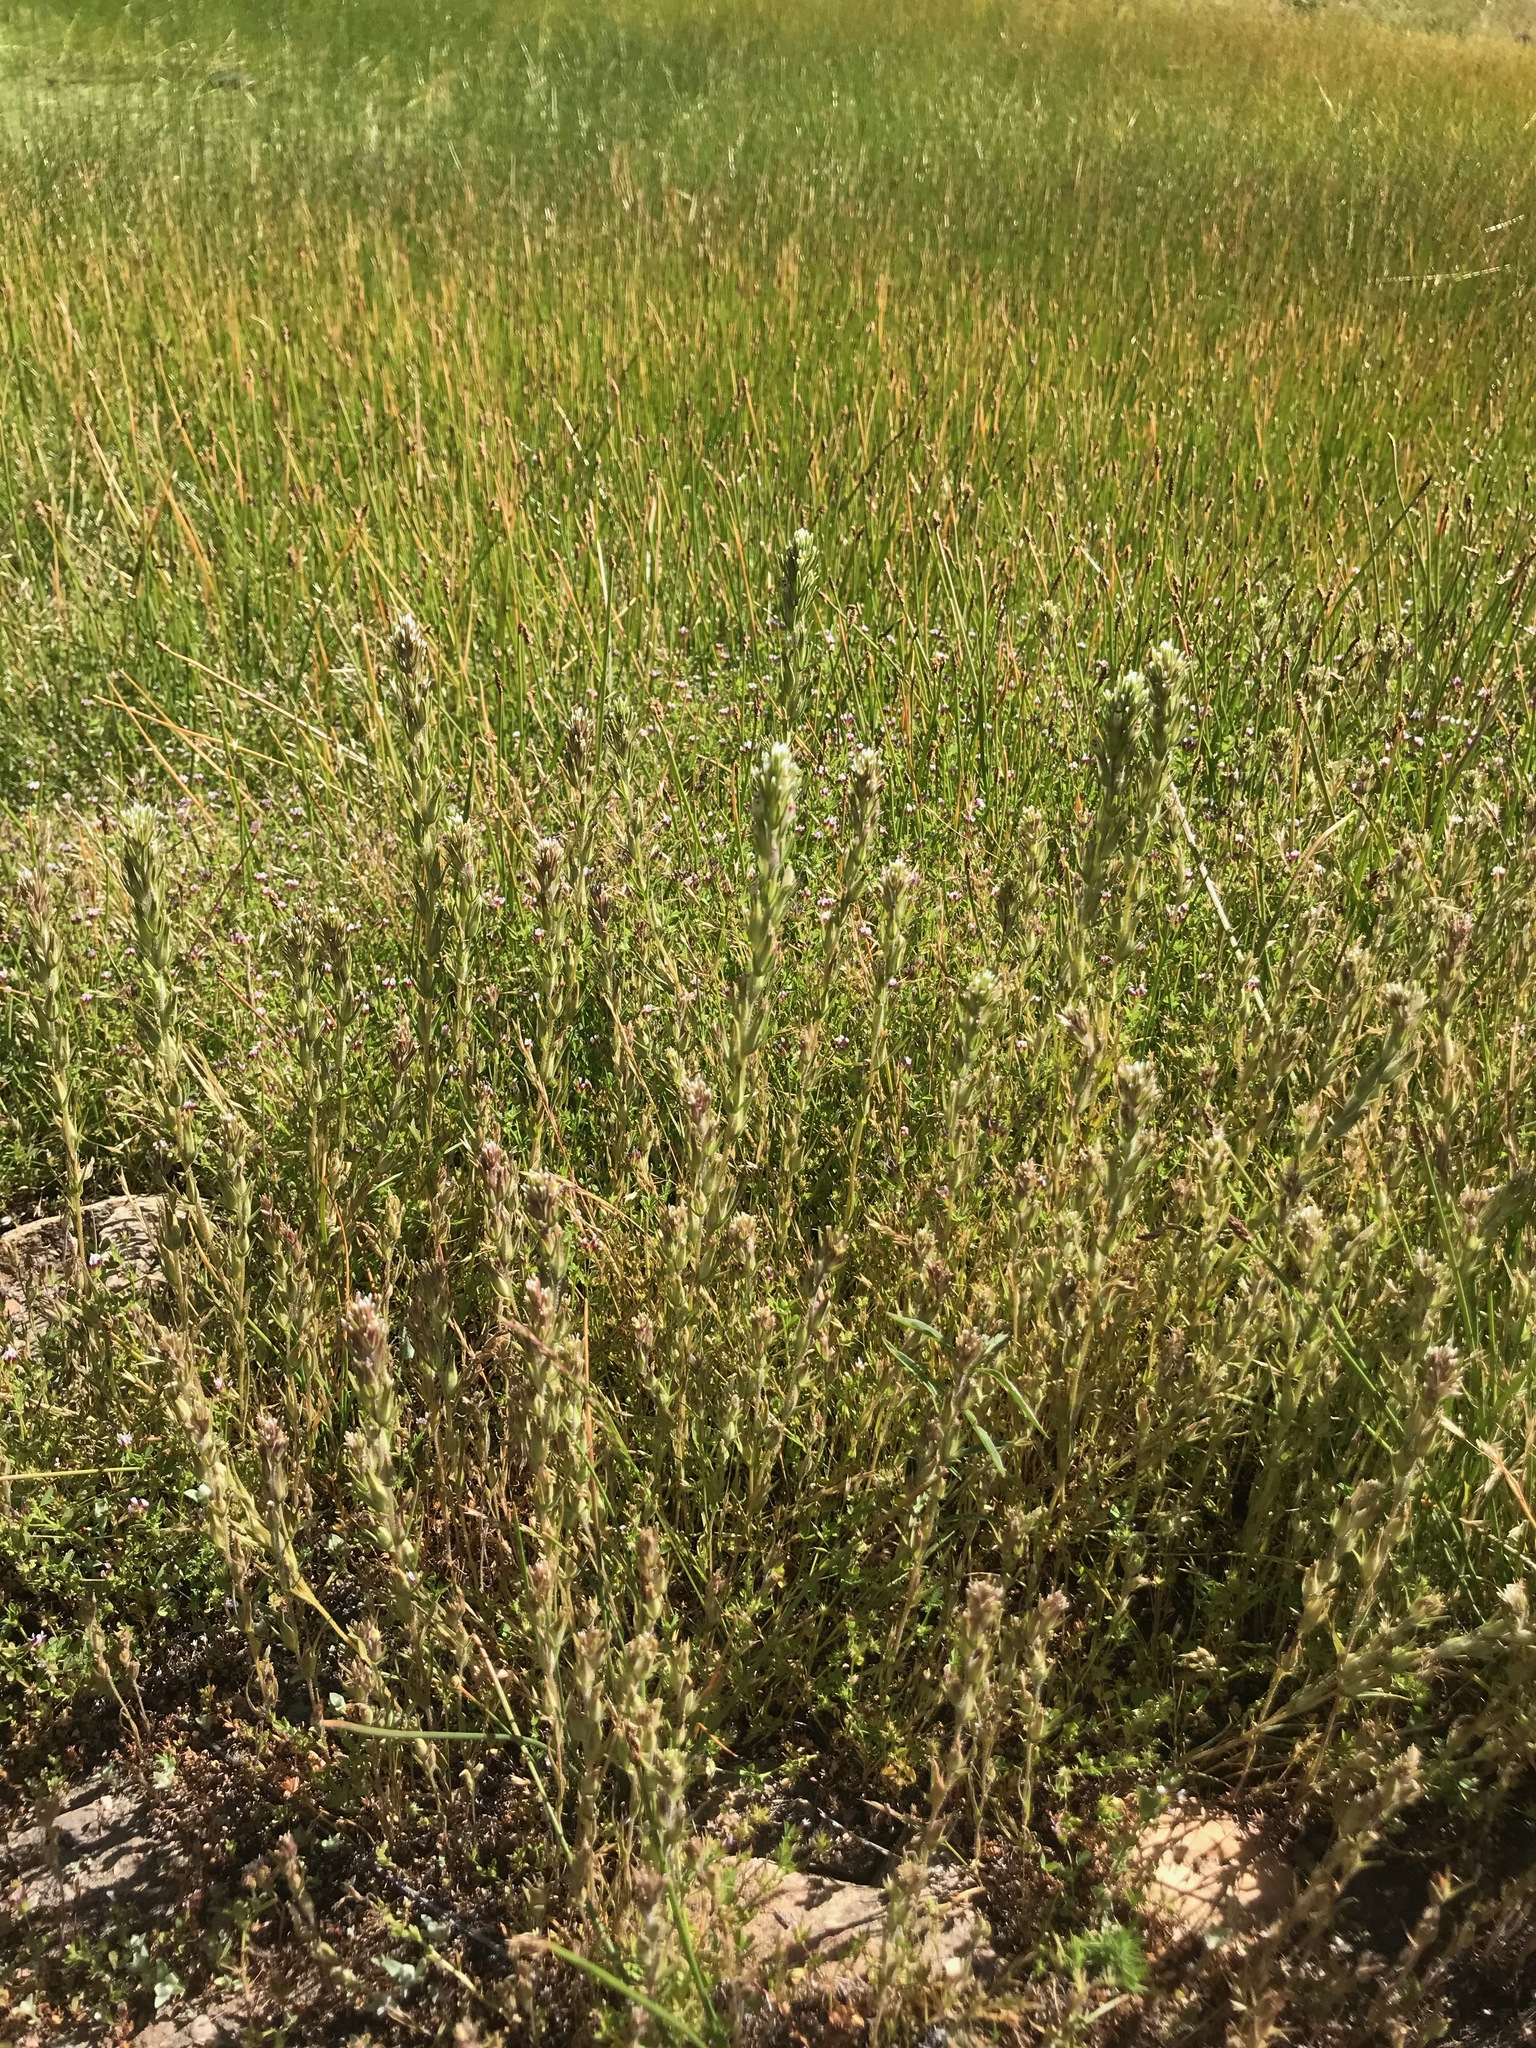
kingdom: Plantae
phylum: Tracheophyta
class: Magnoliopsida
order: Lamiales
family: Orobanchaceae
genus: Castilleja
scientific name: Castilleja attenuata
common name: Valley tassels
